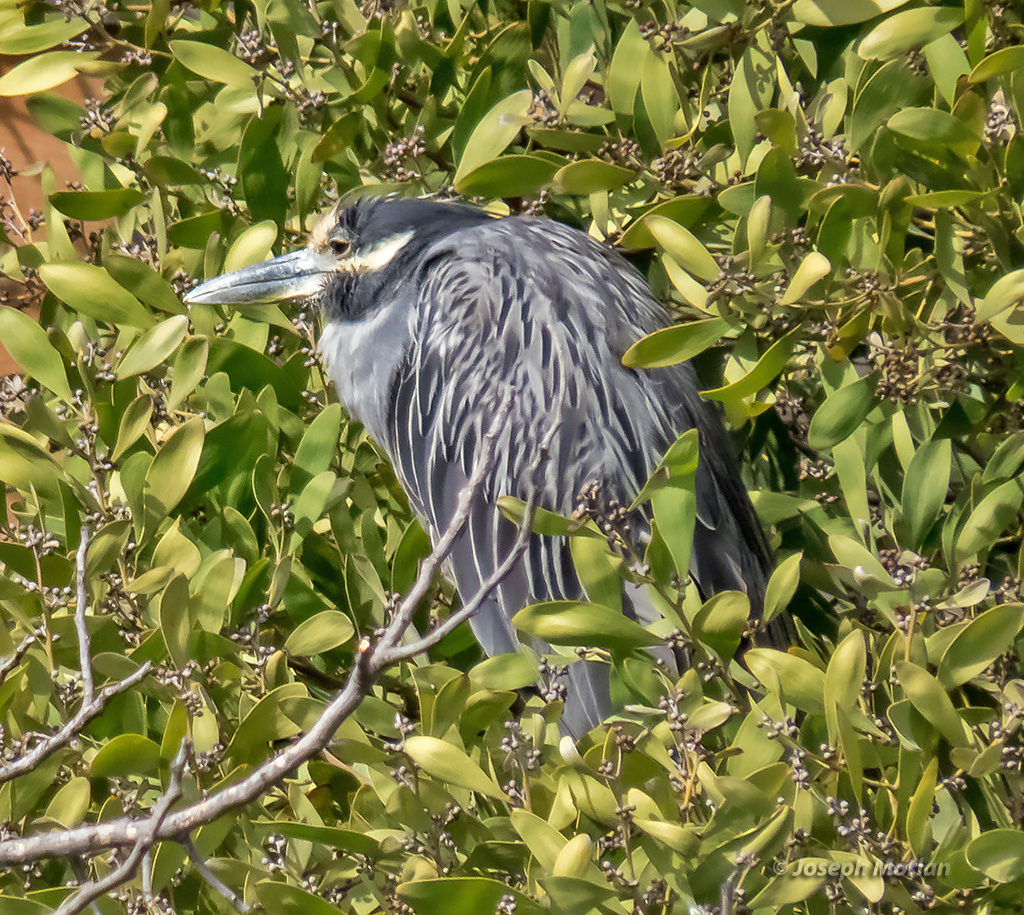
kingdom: Animalia
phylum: Chordata
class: Aves
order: Pelecaniformes
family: Ardeidae
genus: Nyctanassa
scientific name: Nyctanassa violacea
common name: Yellow-crowned night heron
